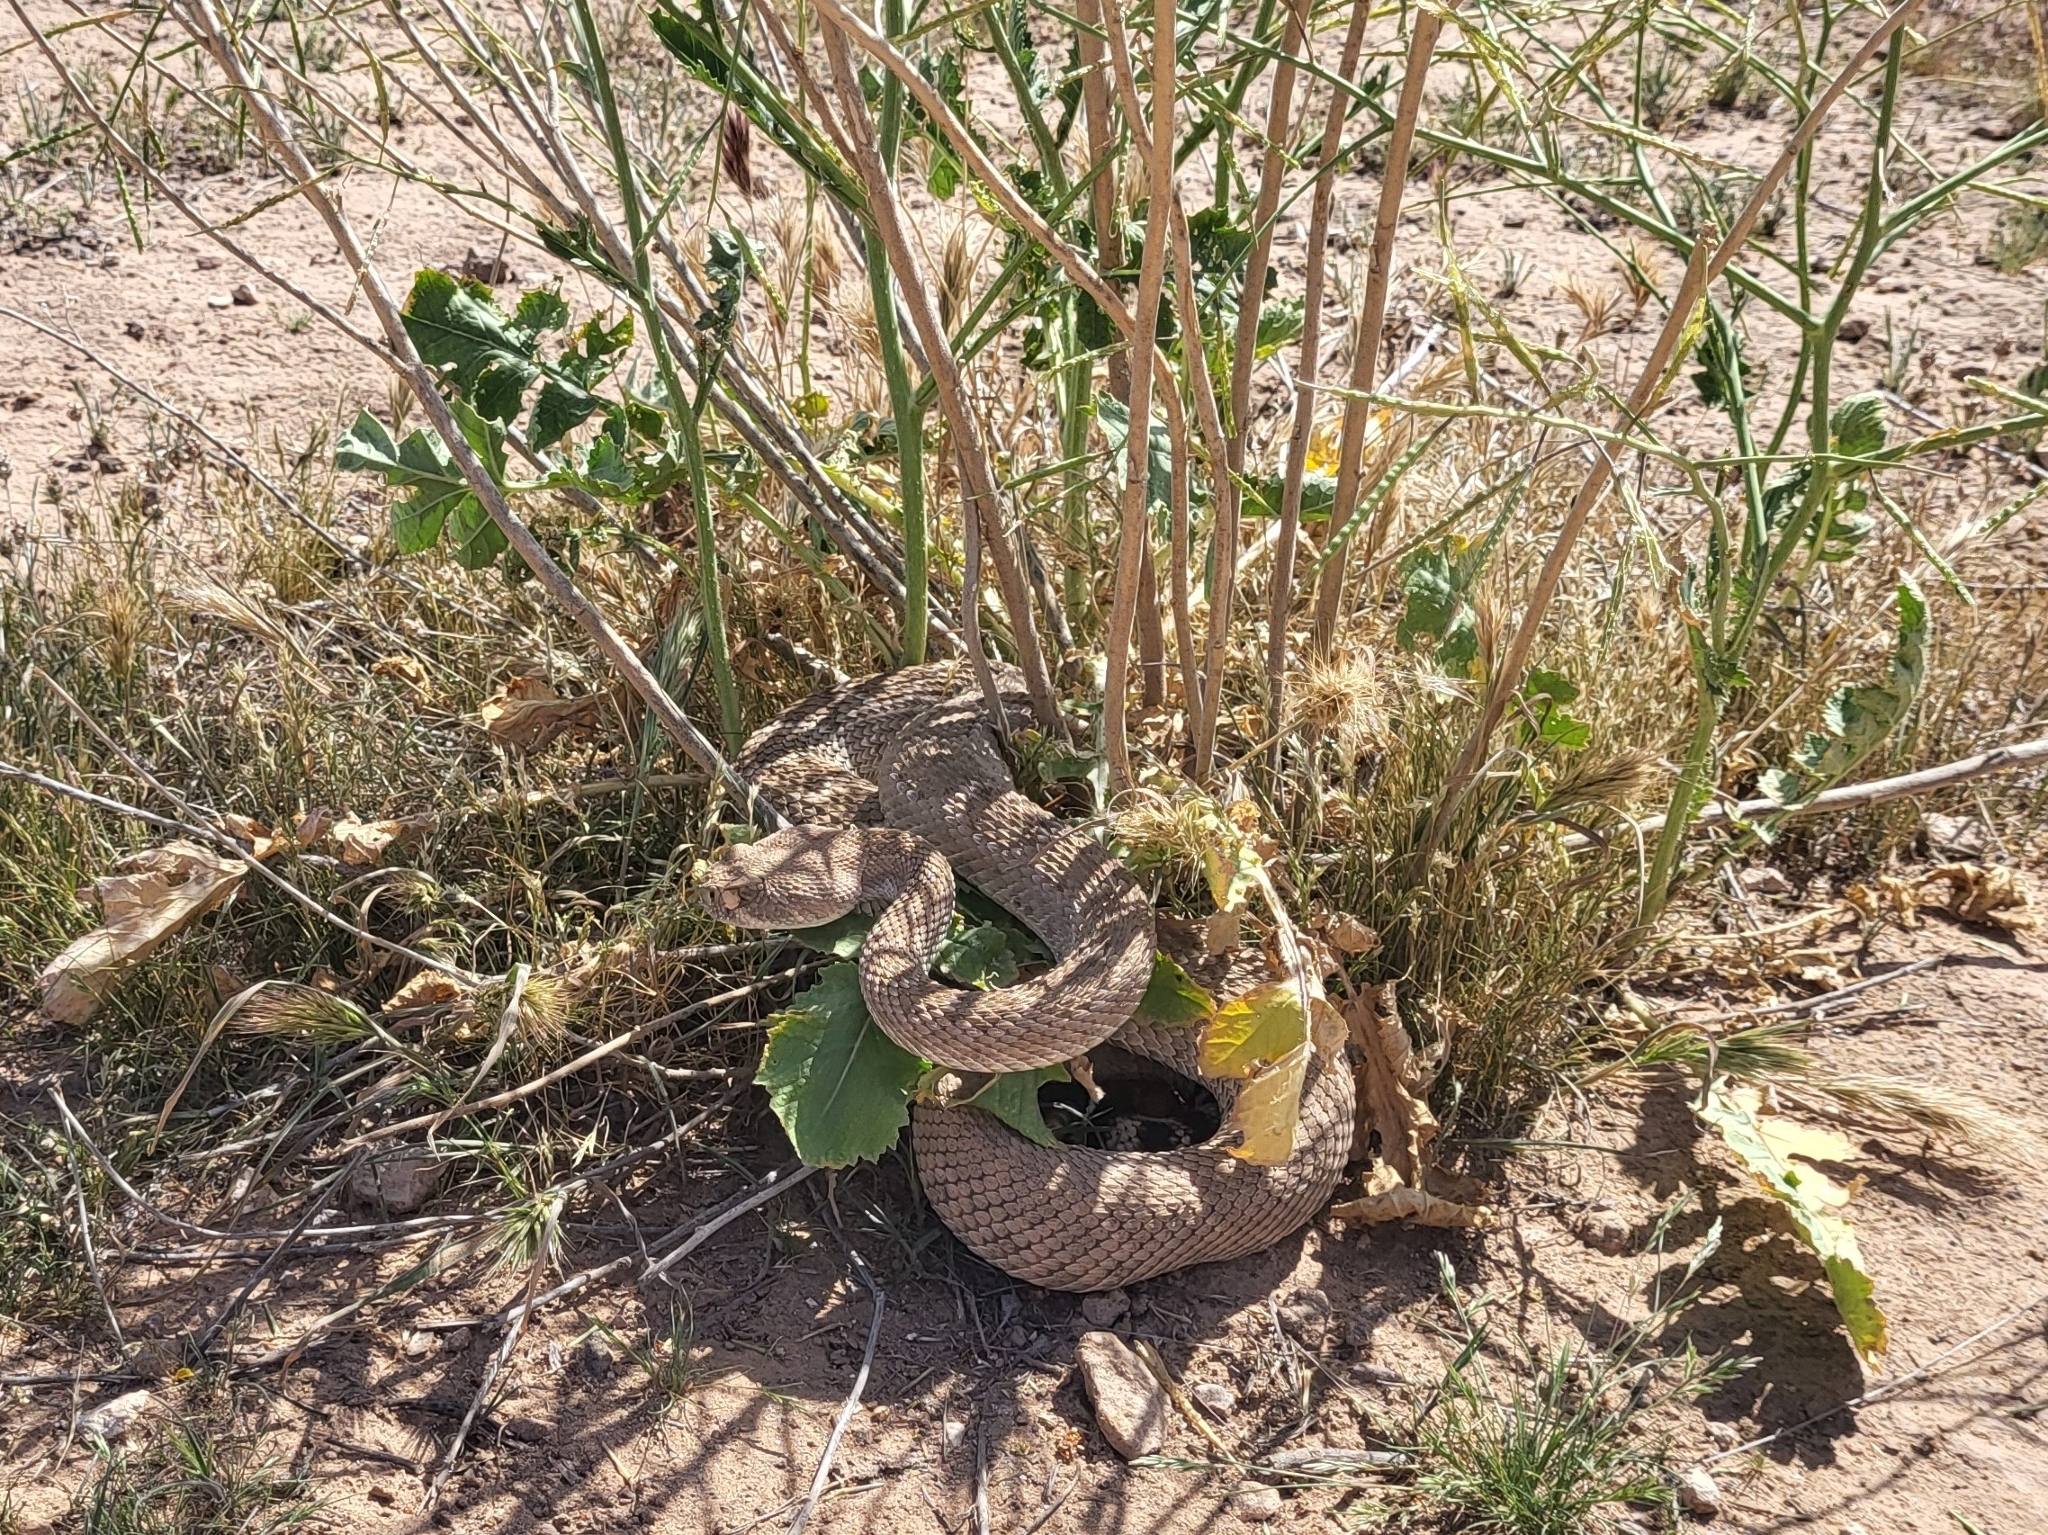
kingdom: Animalia
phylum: Chordata
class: Squamata
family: Viperidae
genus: Crotalus
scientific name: Crotalus atrox
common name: Western diamond-backed rattlesnake
